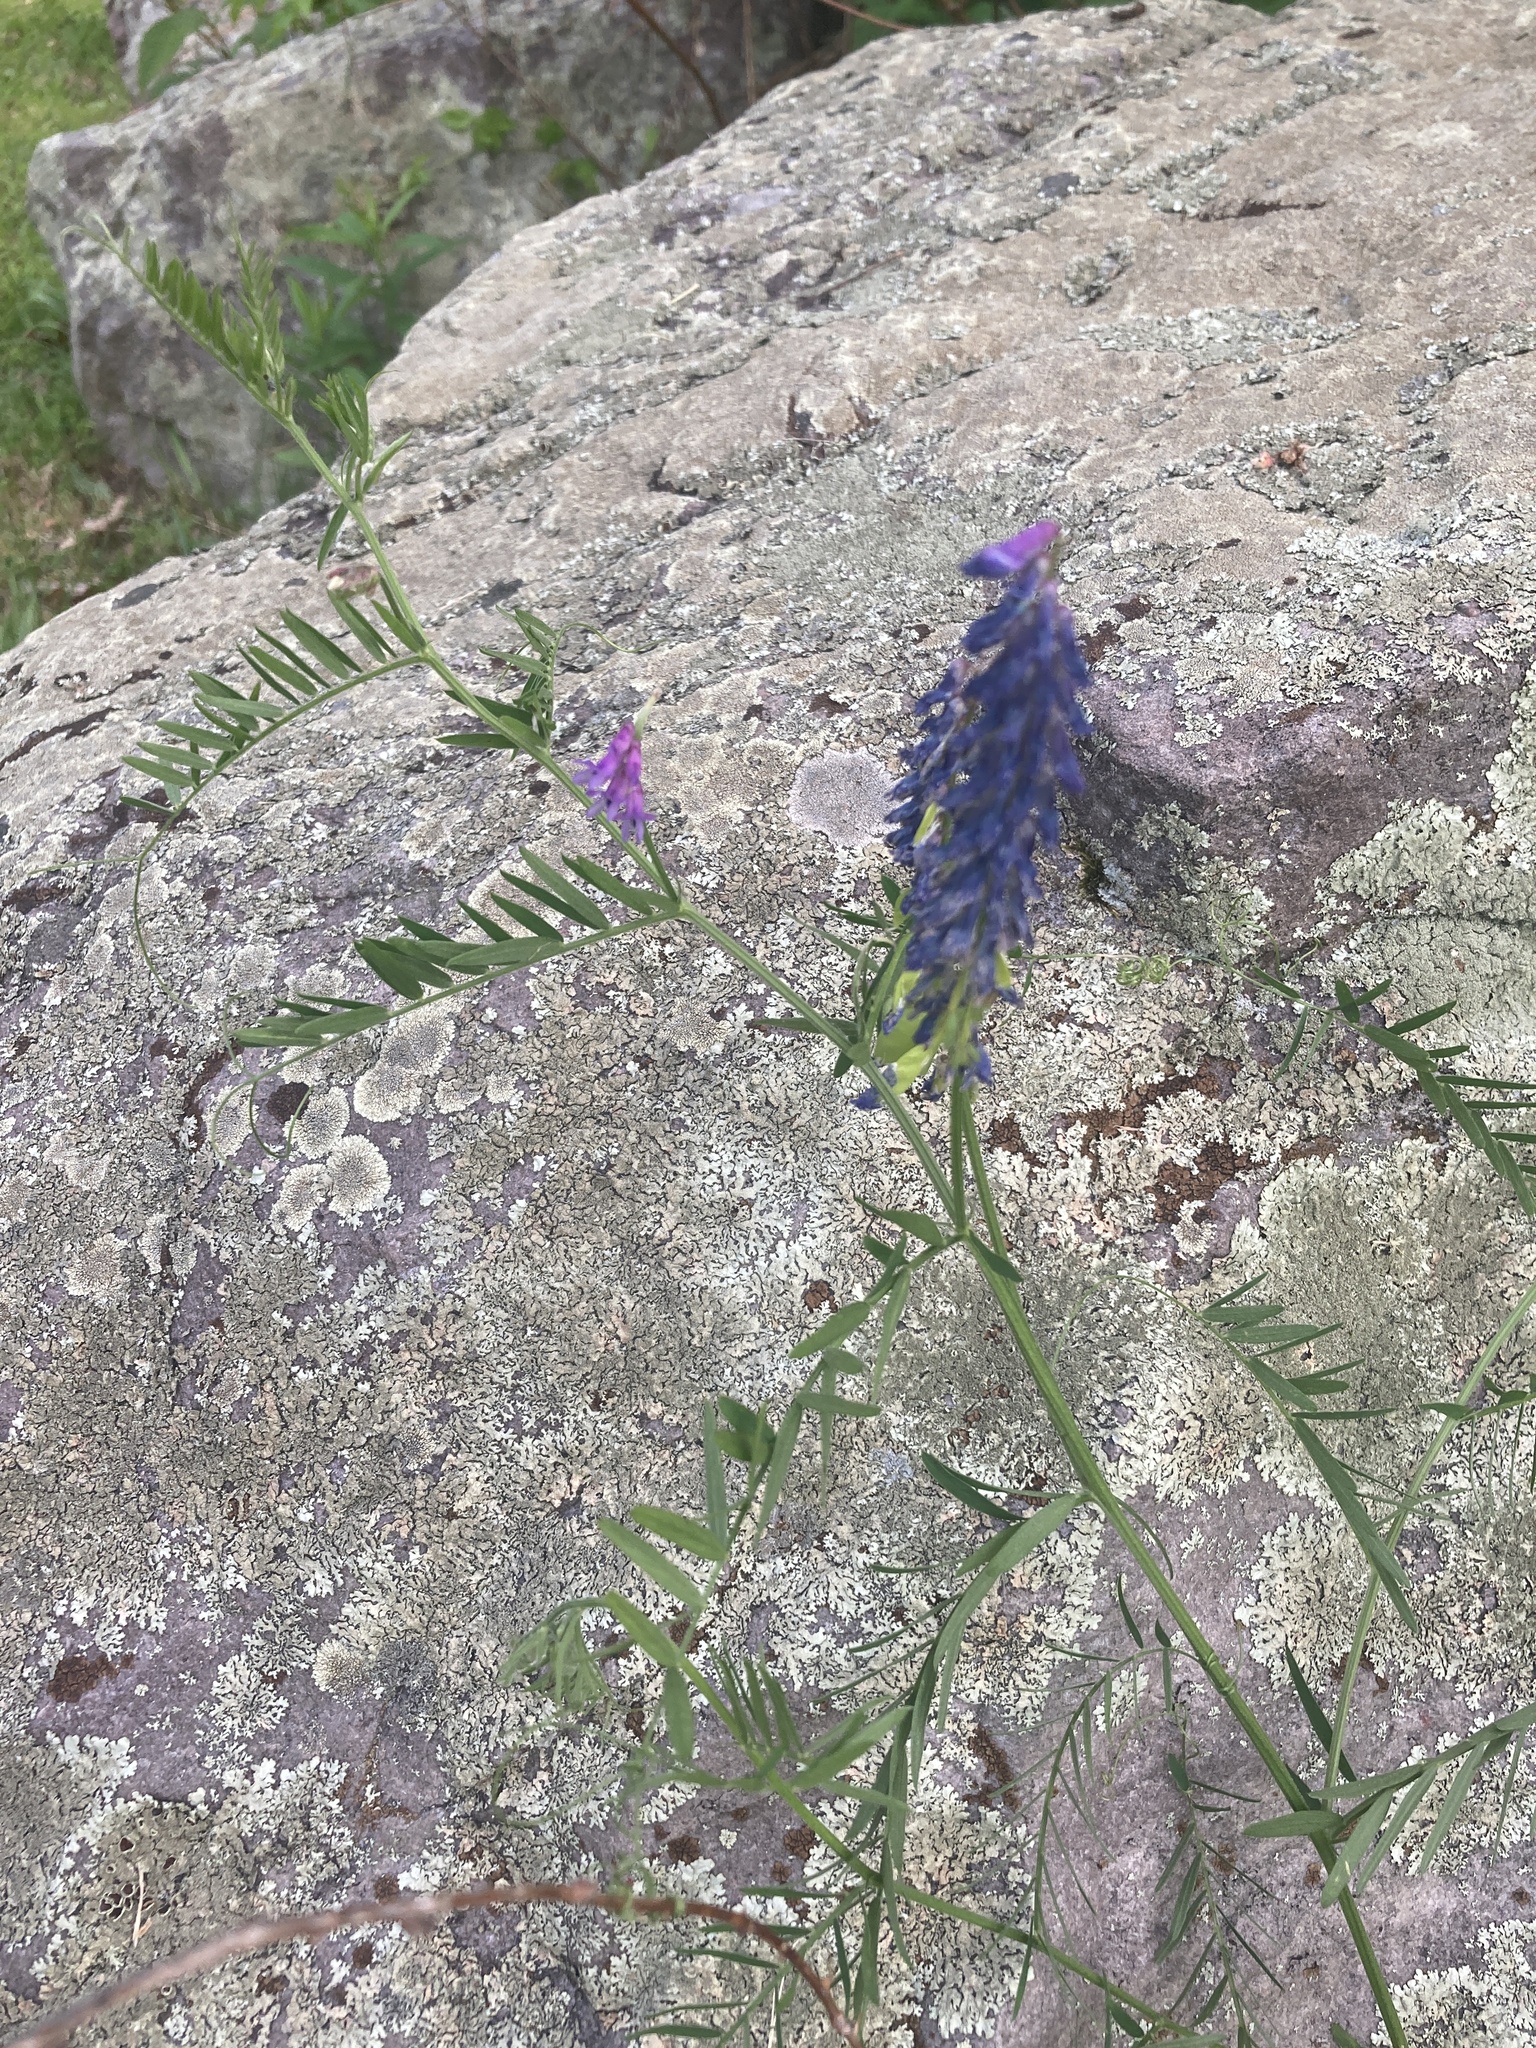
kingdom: Plantae
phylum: Tracheophyta
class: Magnoliopsida
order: Fabales
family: Fabaceae
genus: Vicia
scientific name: Vicia cracca
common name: Bird vetch
